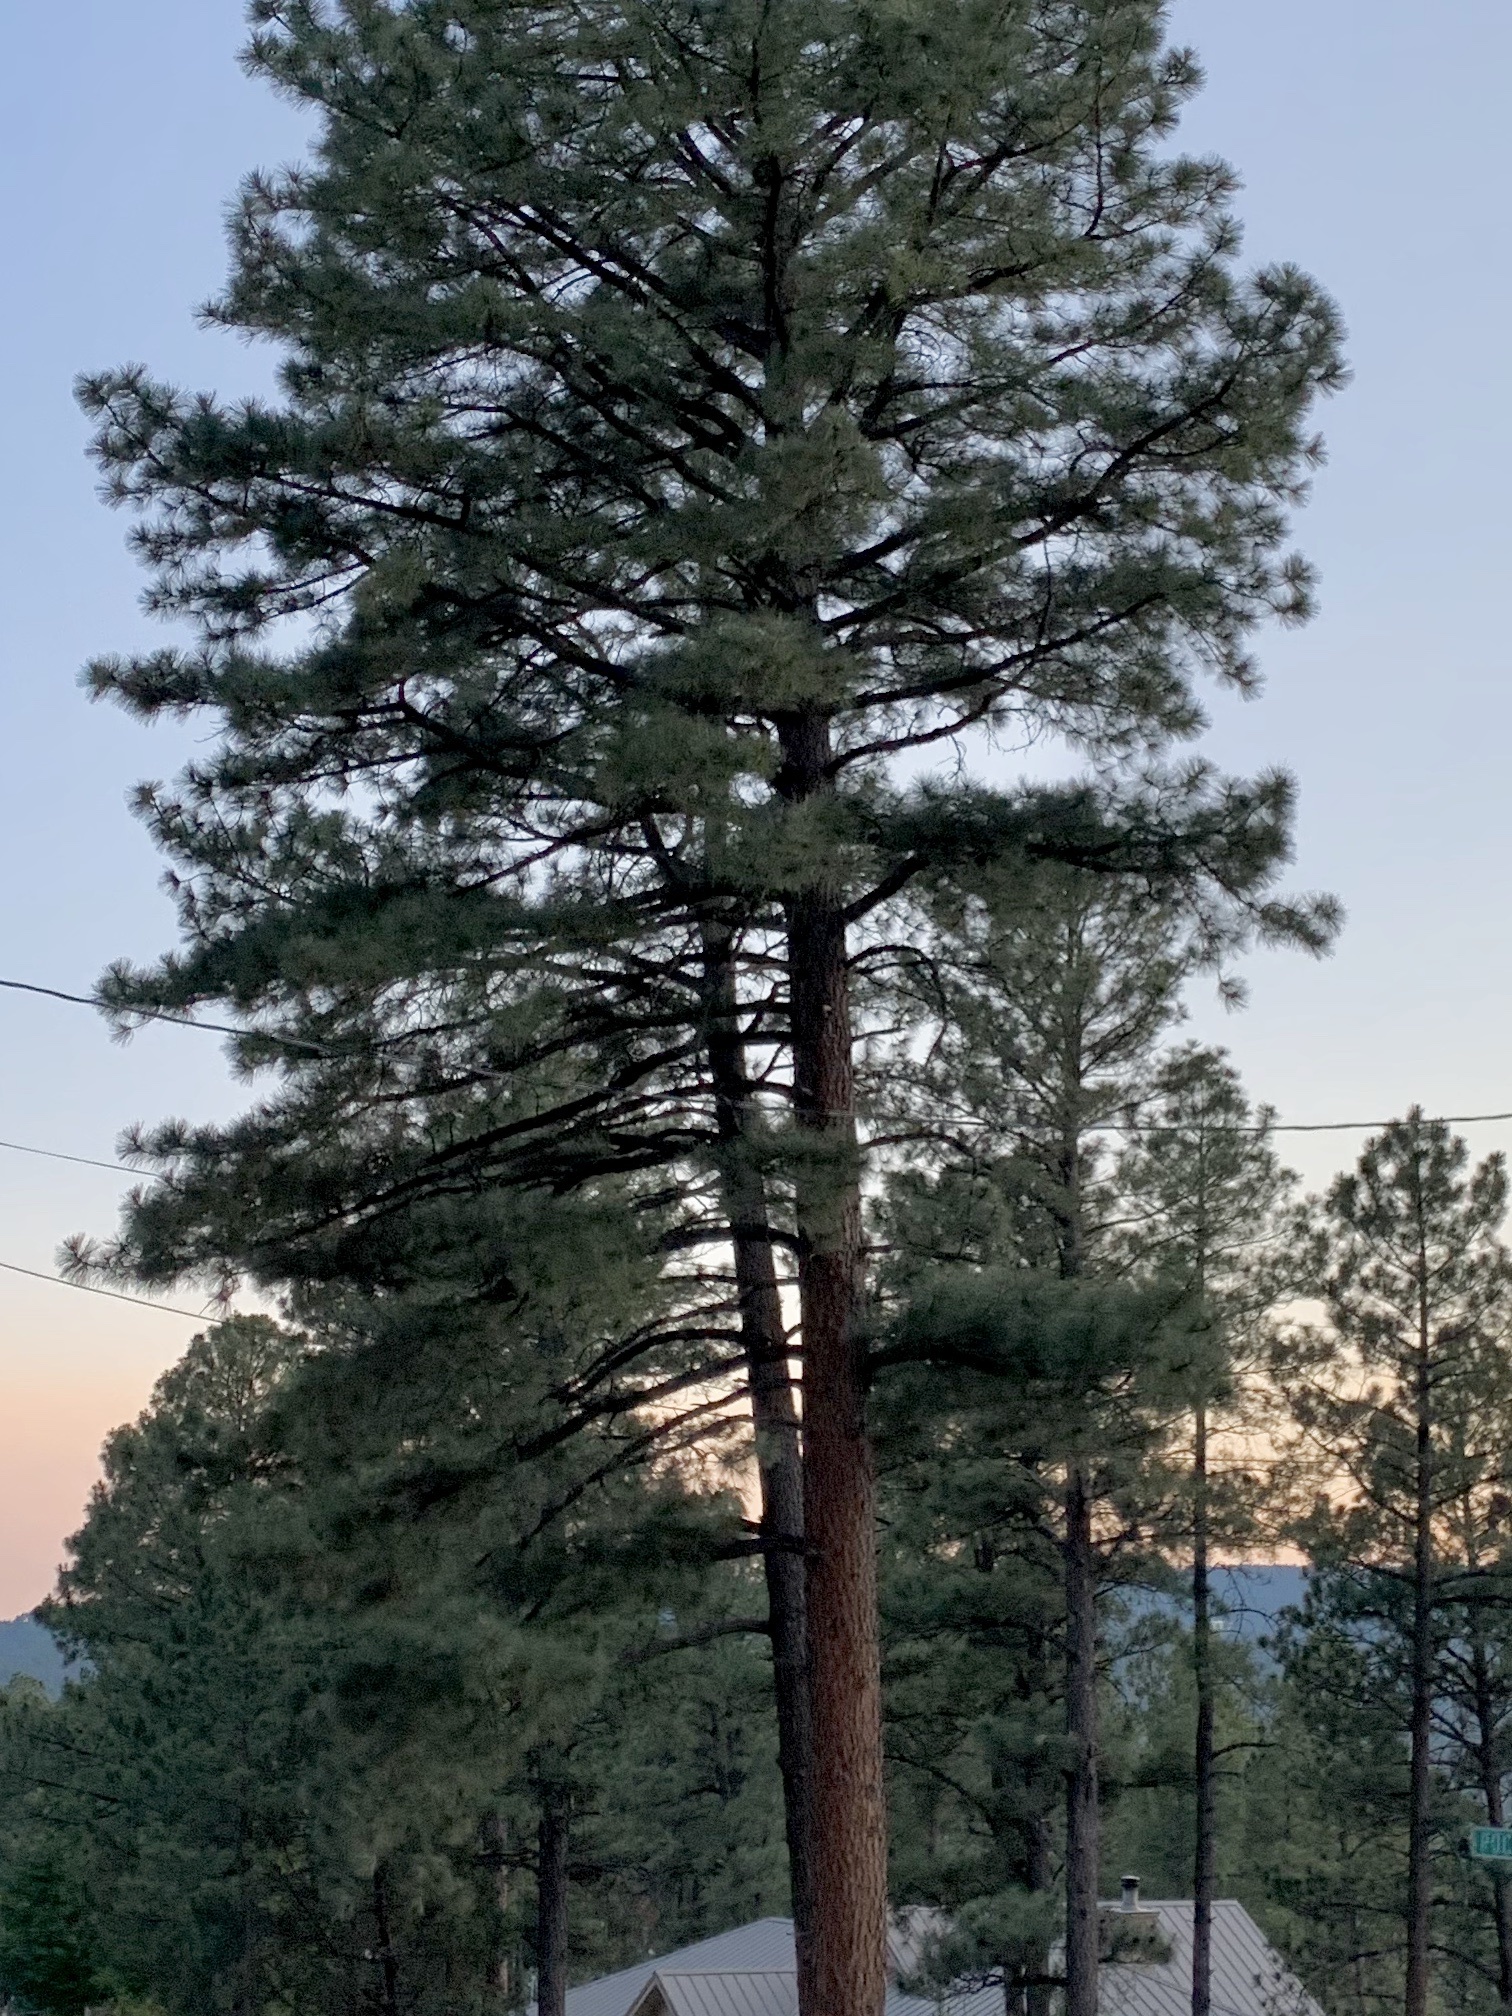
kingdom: Plantae
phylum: Tracheophyta
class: Pinopsida
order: Pinales
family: Pinaceae
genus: Pinus
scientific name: Pinus ponderosa
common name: Western yellow-pine
